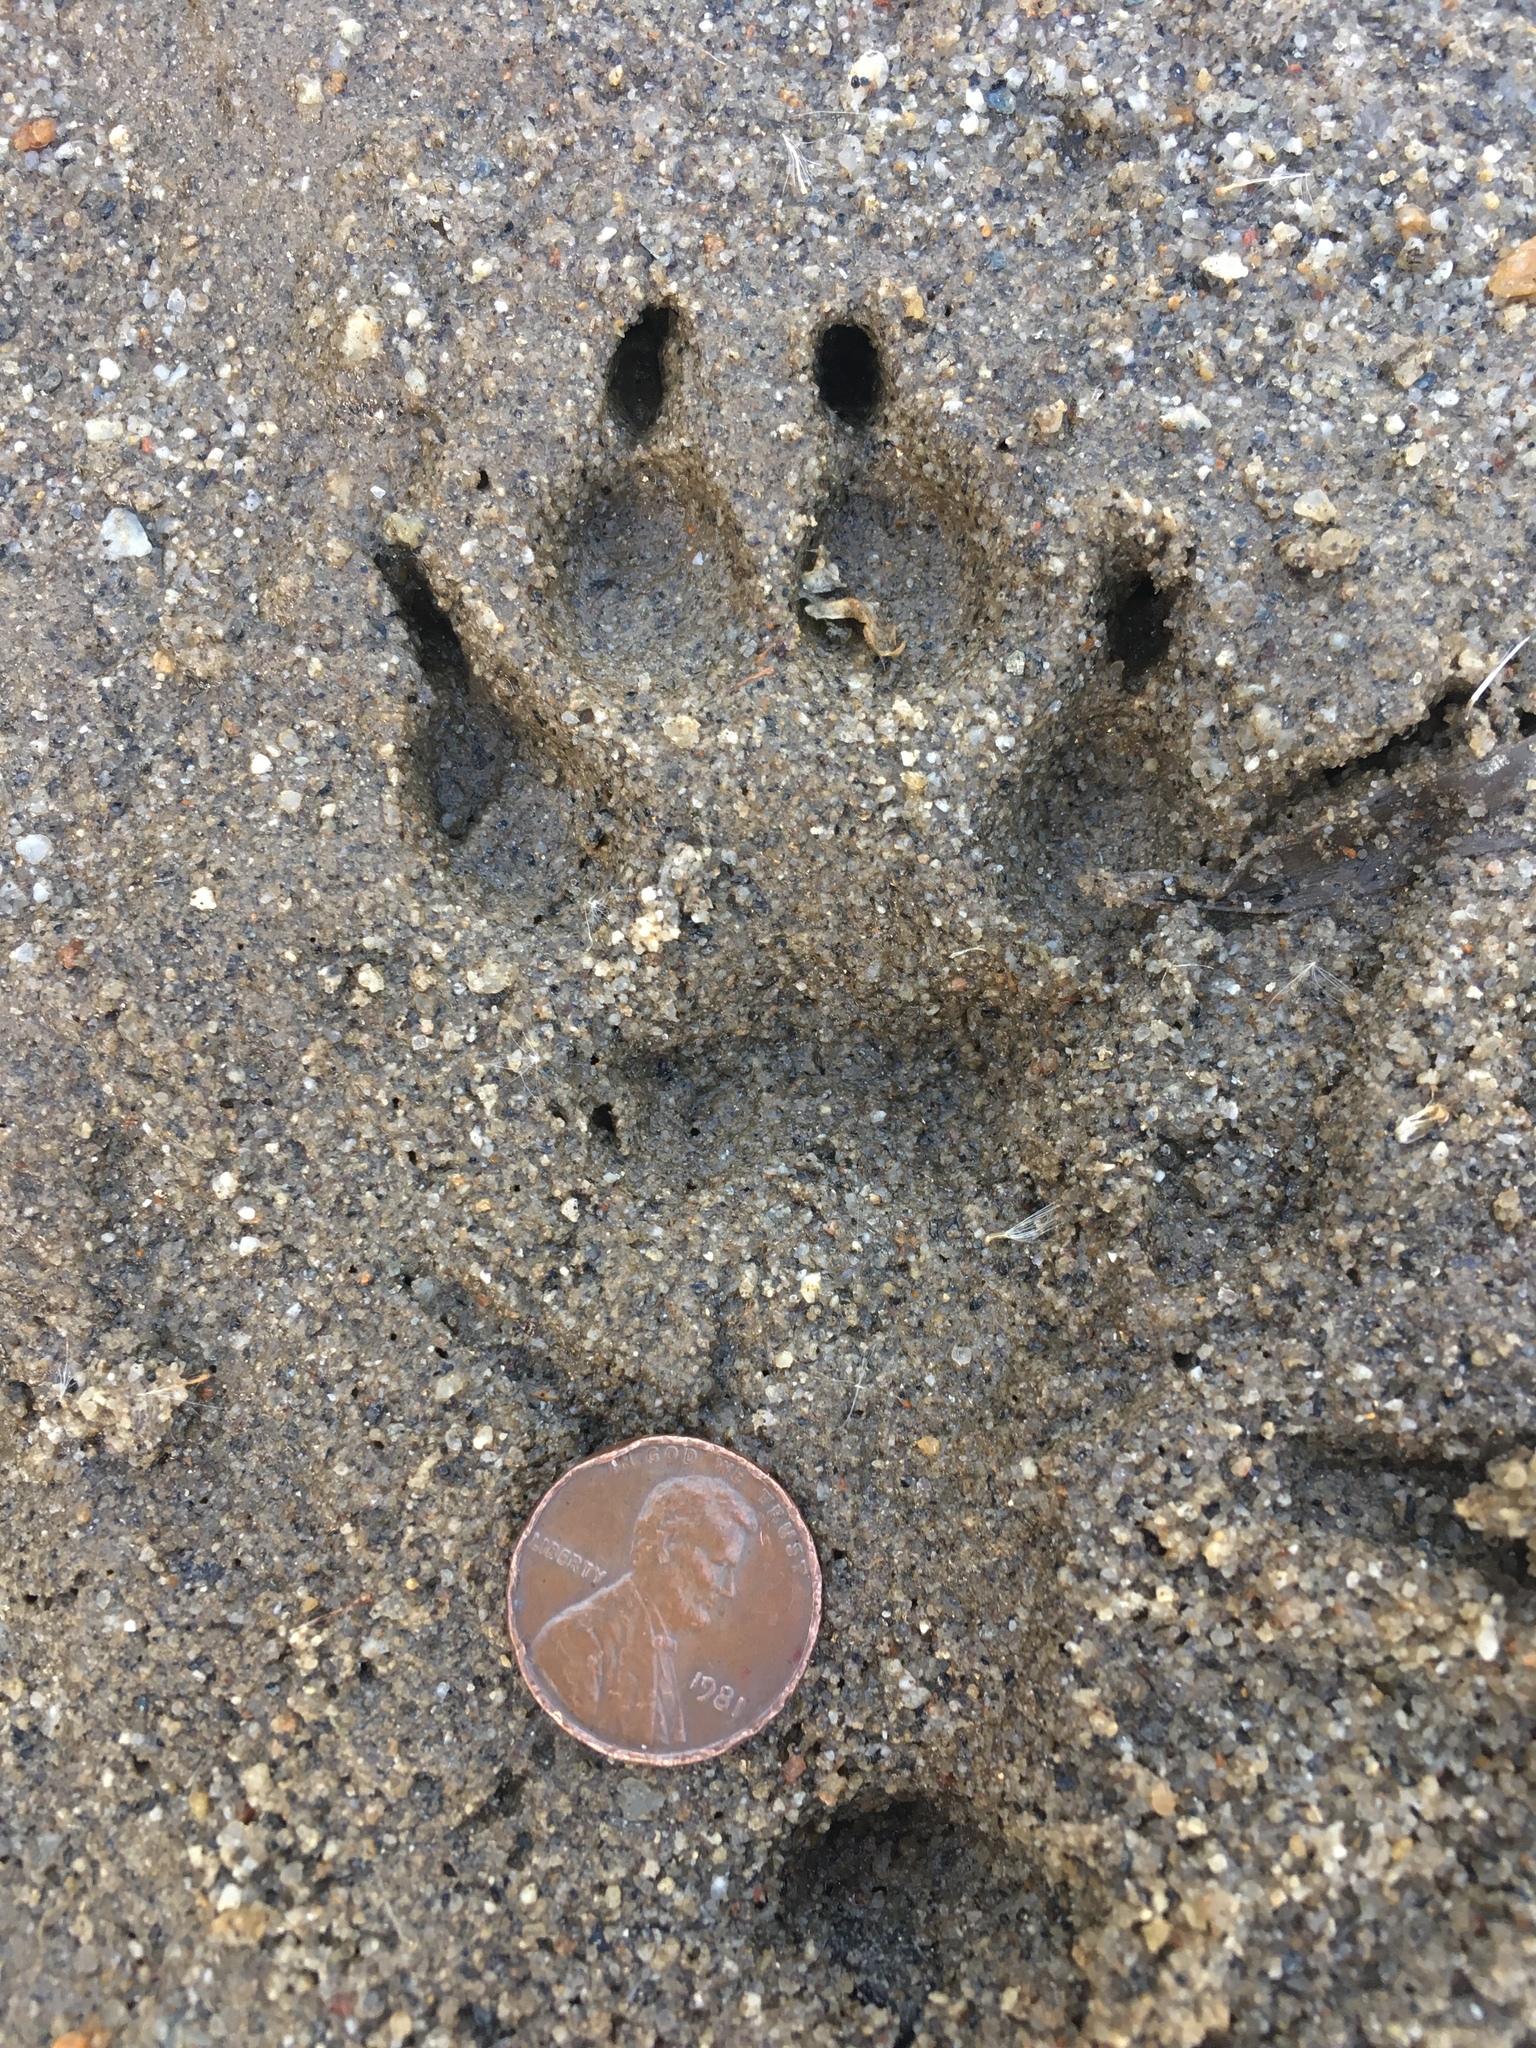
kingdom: Animalia
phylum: Chordata
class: Mammalia
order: Carnivora
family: Canidae
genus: Canis
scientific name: Canis latrans
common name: Coyote
